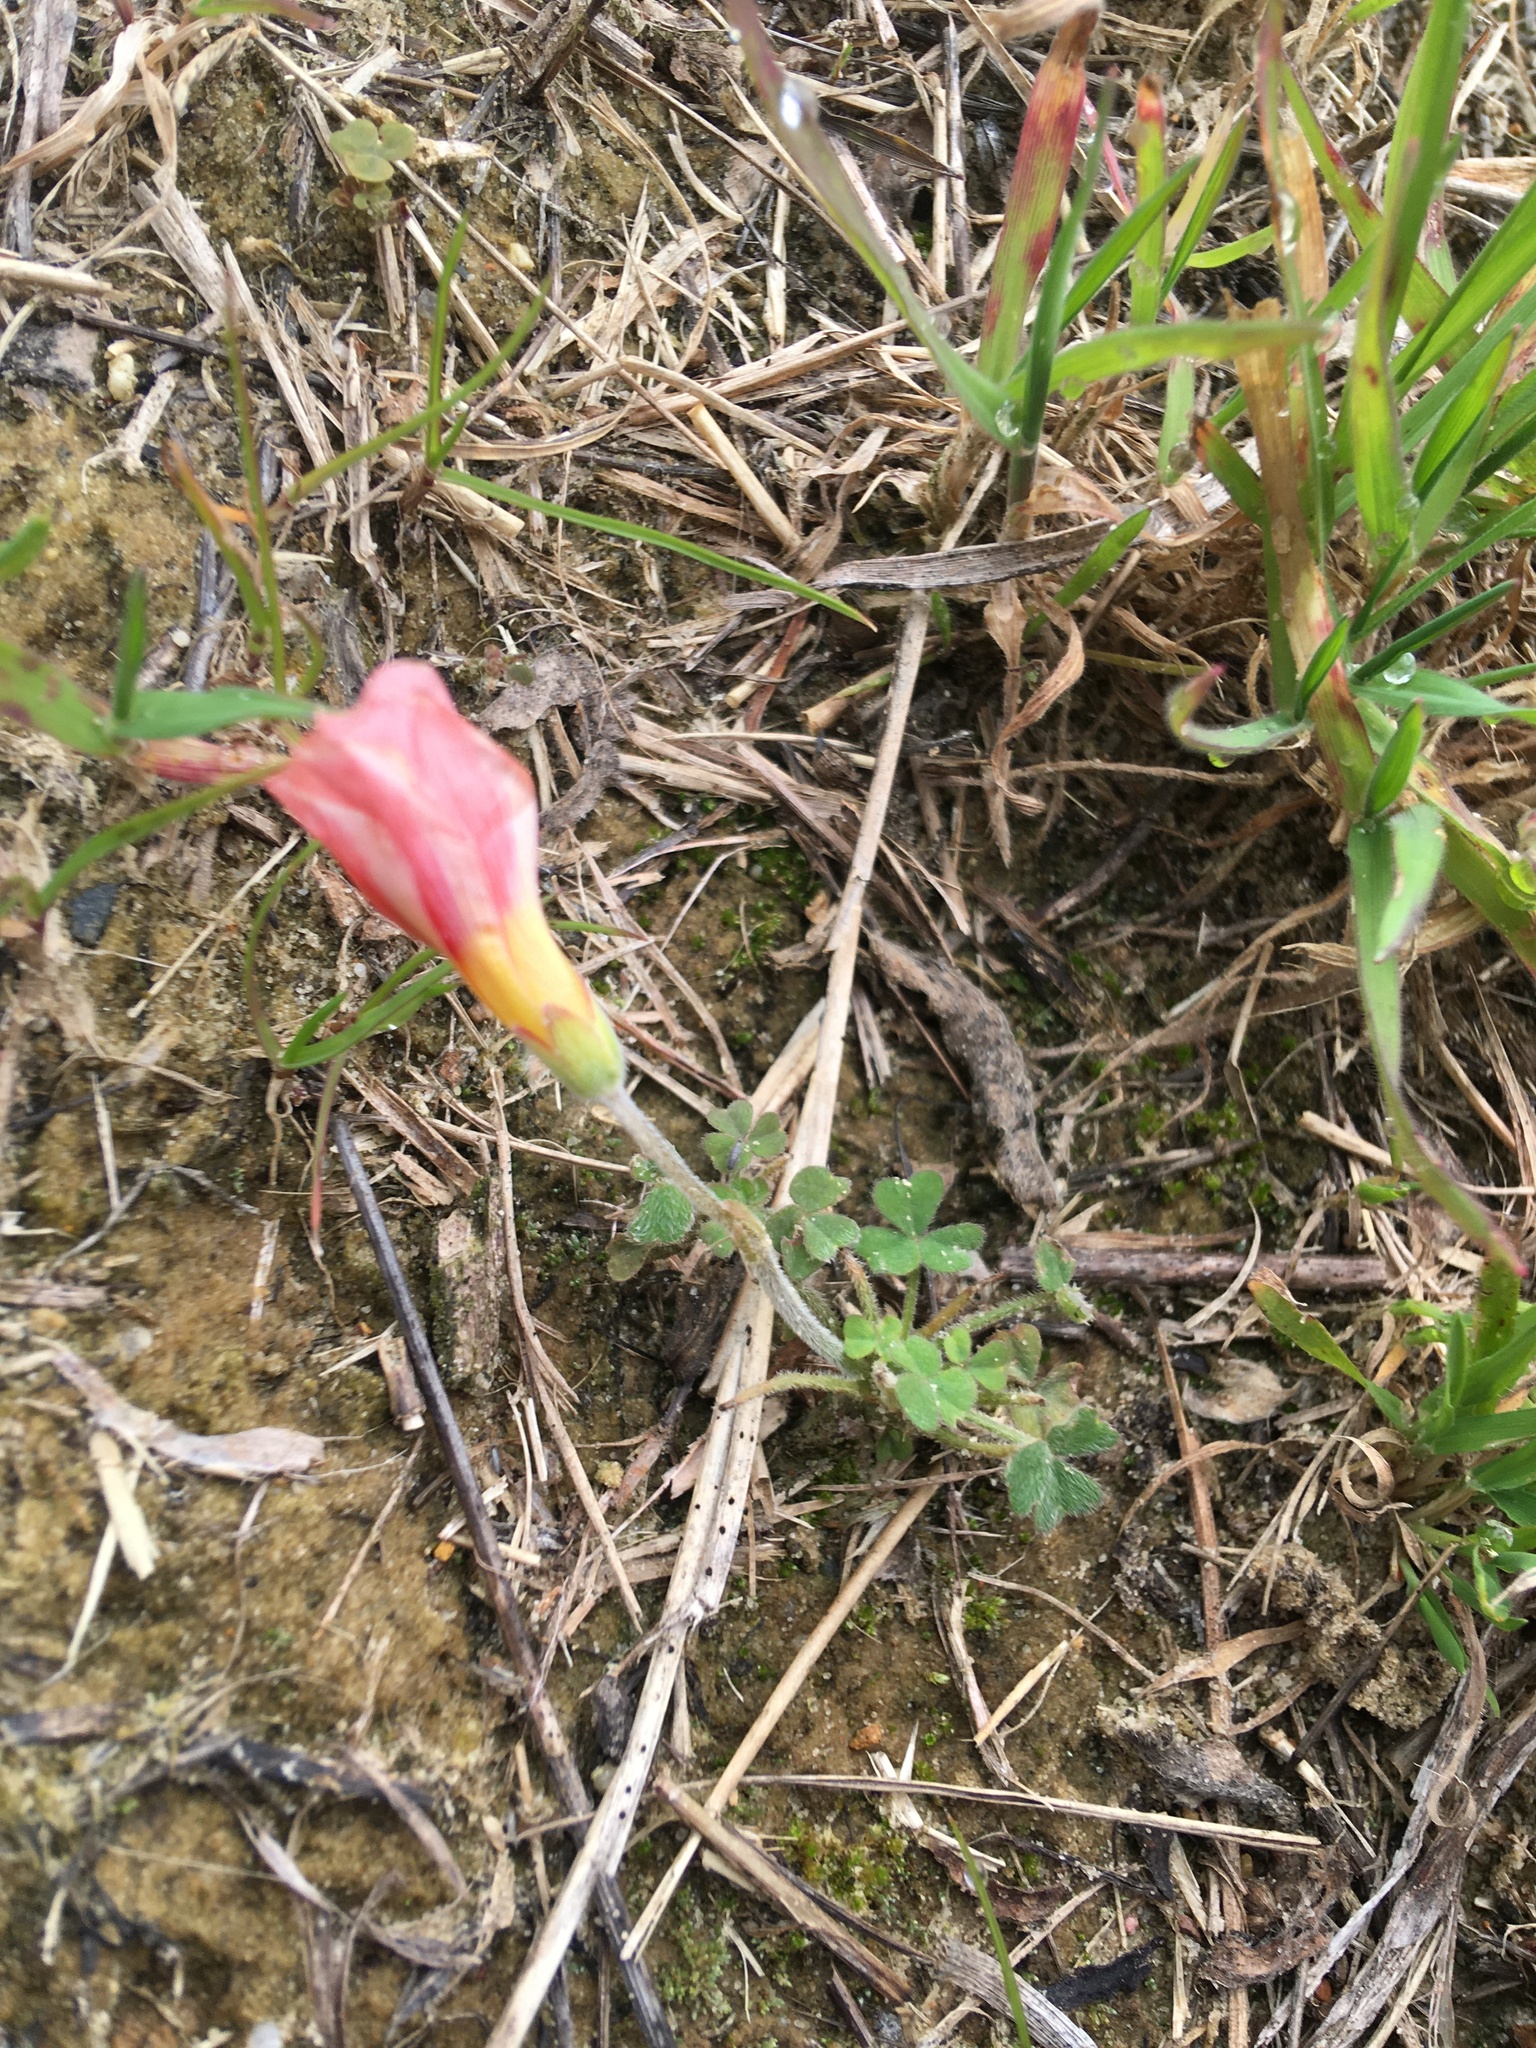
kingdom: Plantae
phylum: Tracheophyta
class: Magnoliopsida
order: Oxalidales
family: Oxalidaceae
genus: Oxalis
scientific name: Oxalis obtusa
